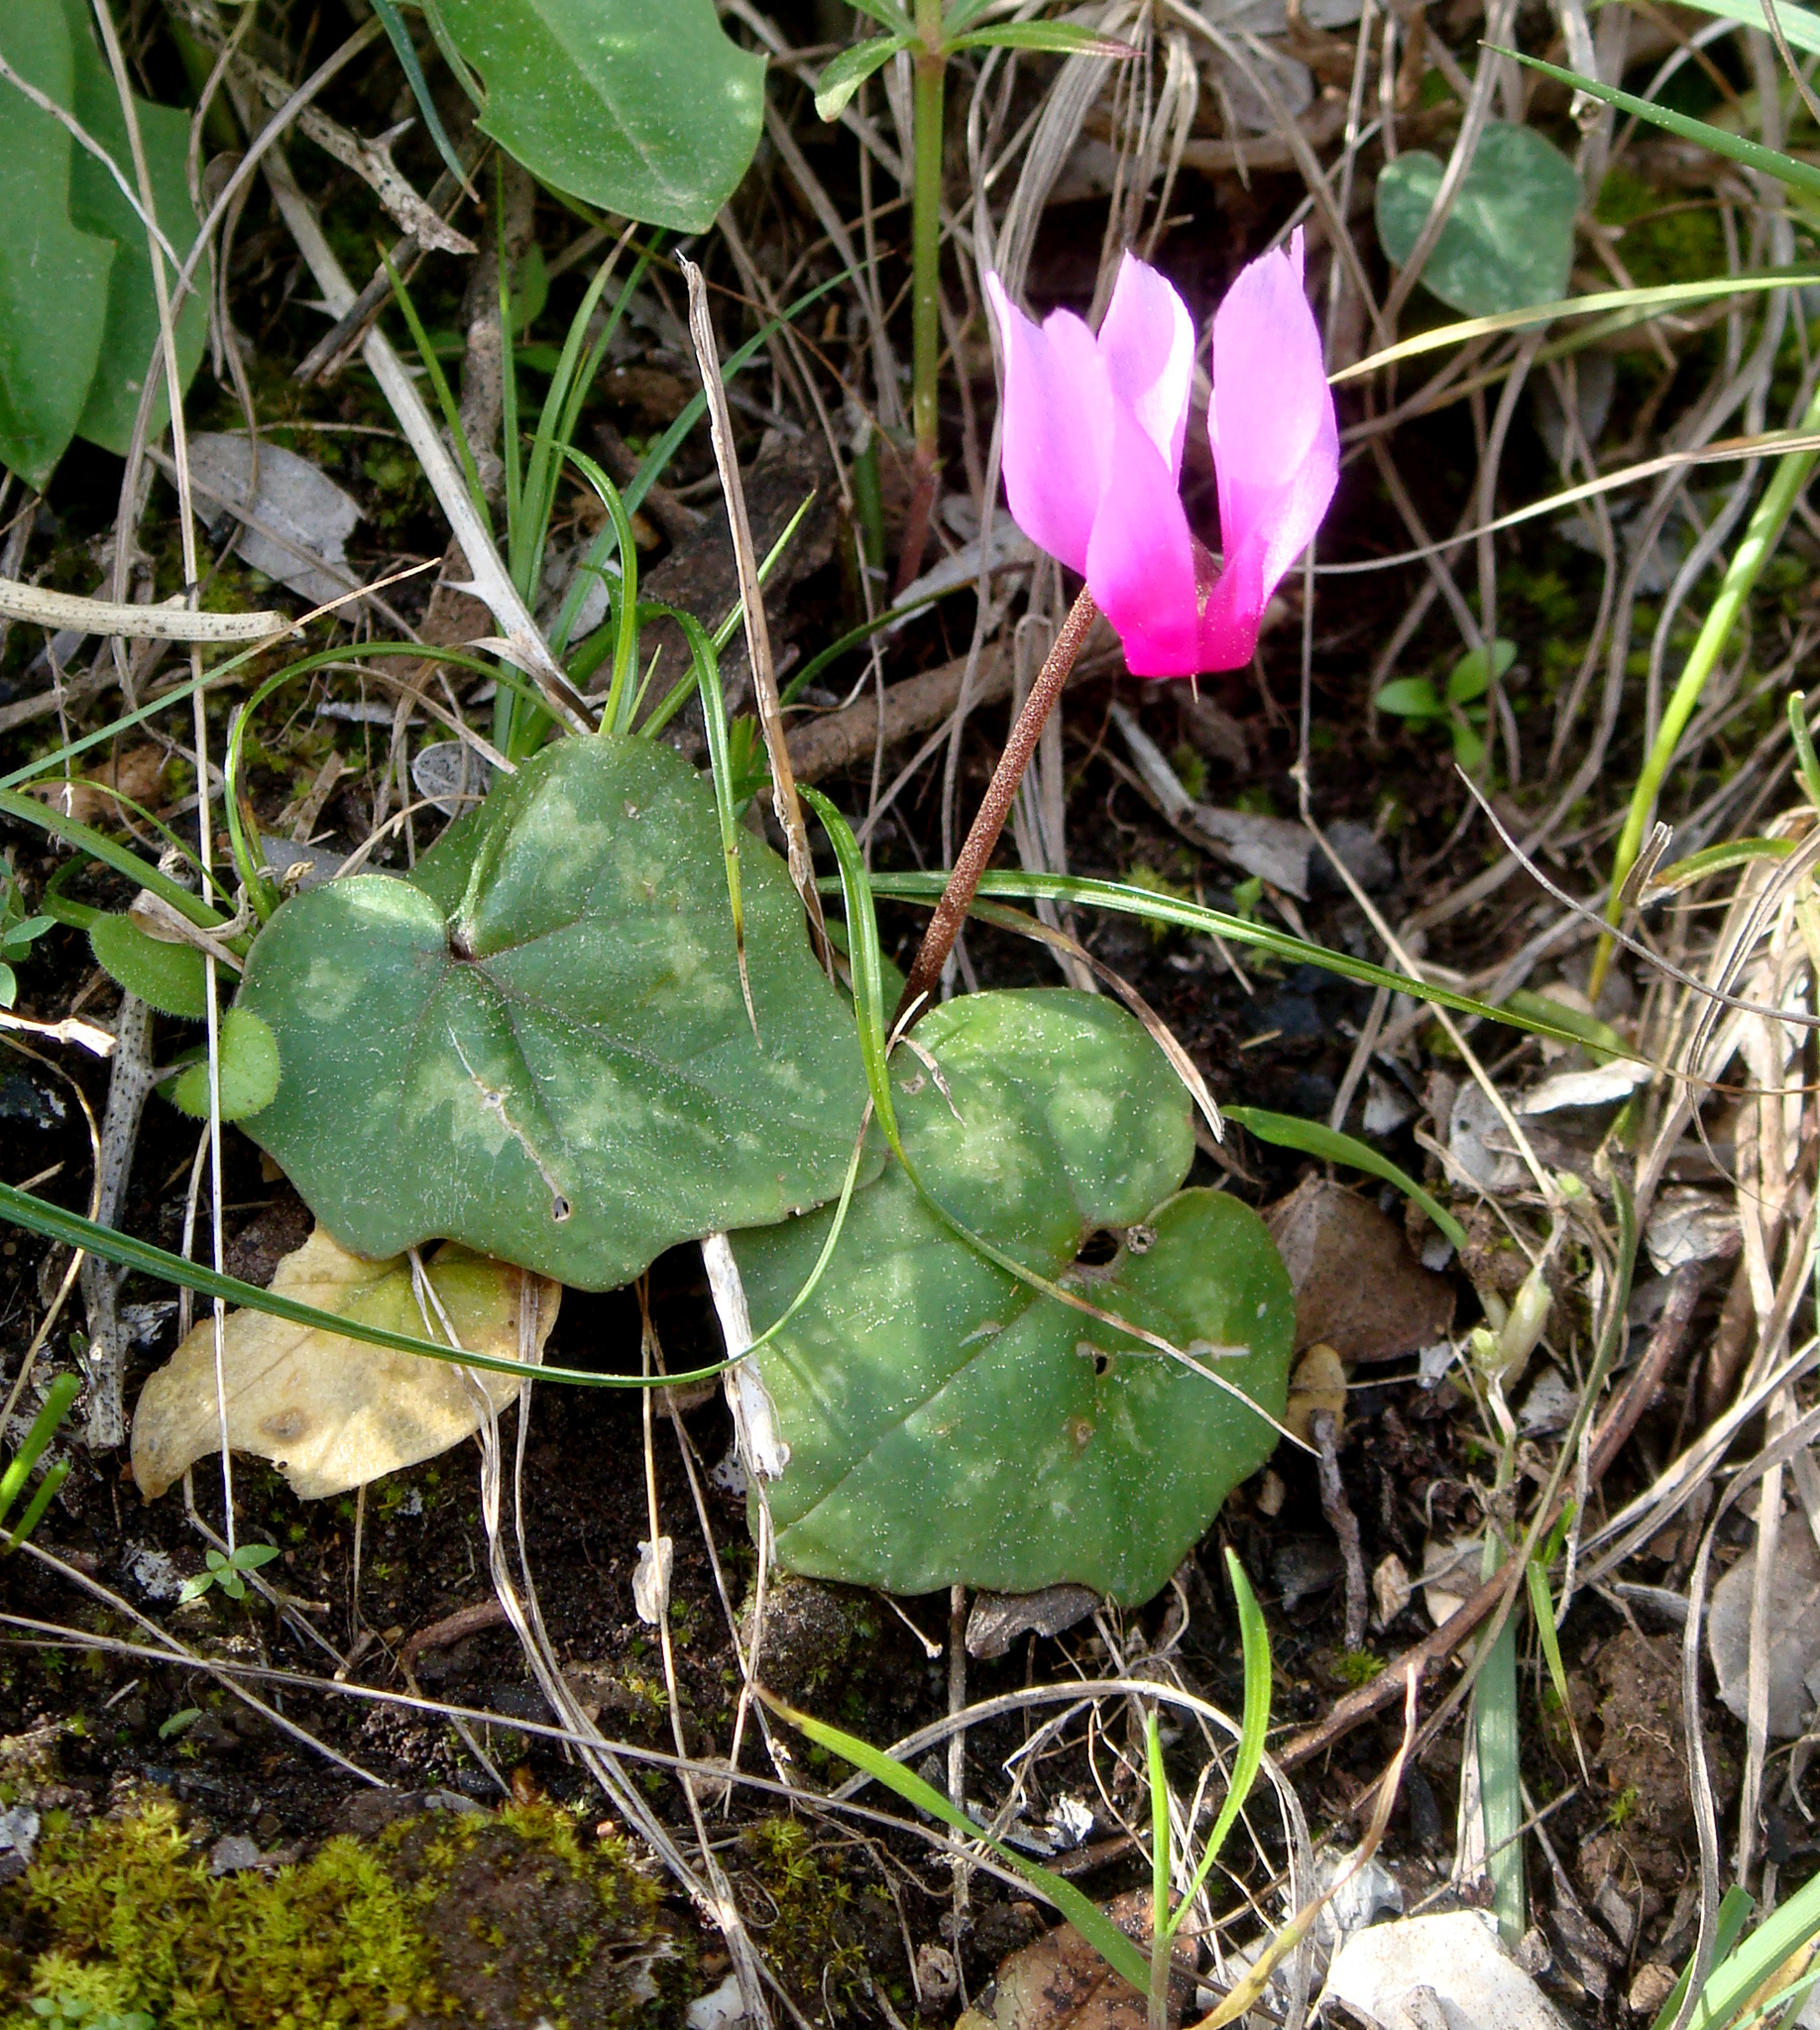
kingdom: Plantae
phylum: Tracheophyta
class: Magnoliopsida
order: Ericales
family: Primulaceae
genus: Cyclamen
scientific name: Cyclamen repandum
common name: Spring sowbread
